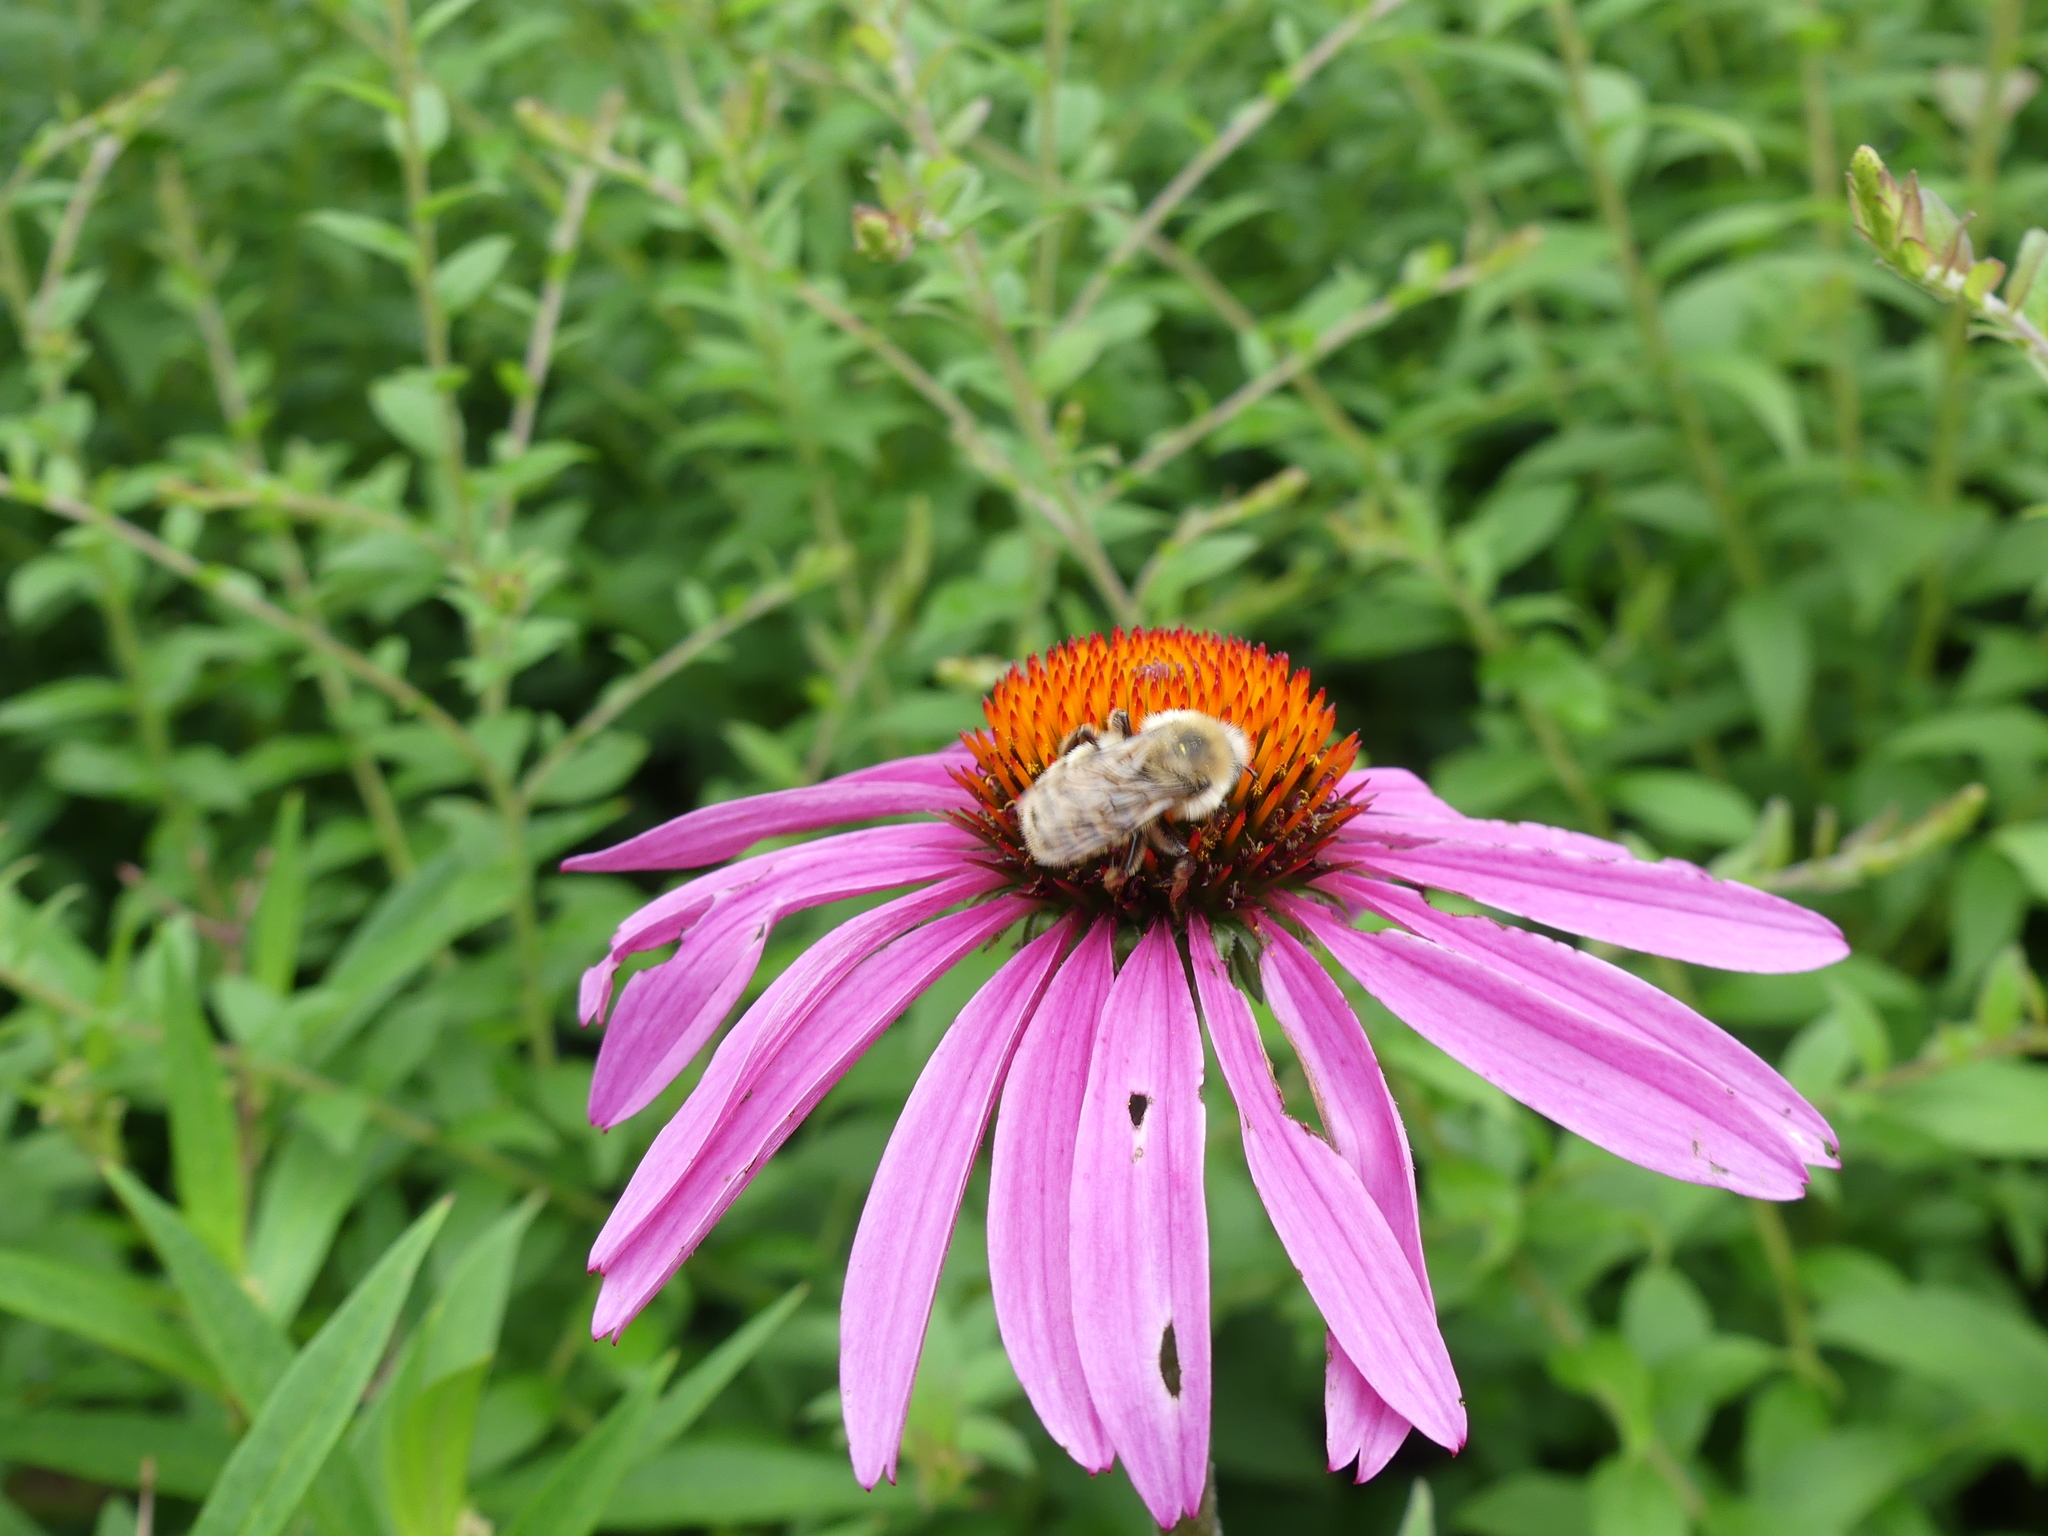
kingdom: Animalia
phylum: Arthropoda
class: Insecta
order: Hymenoptera
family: Apidae
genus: Bombus
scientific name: Bombus perplexus
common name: Confusing bumble bee
